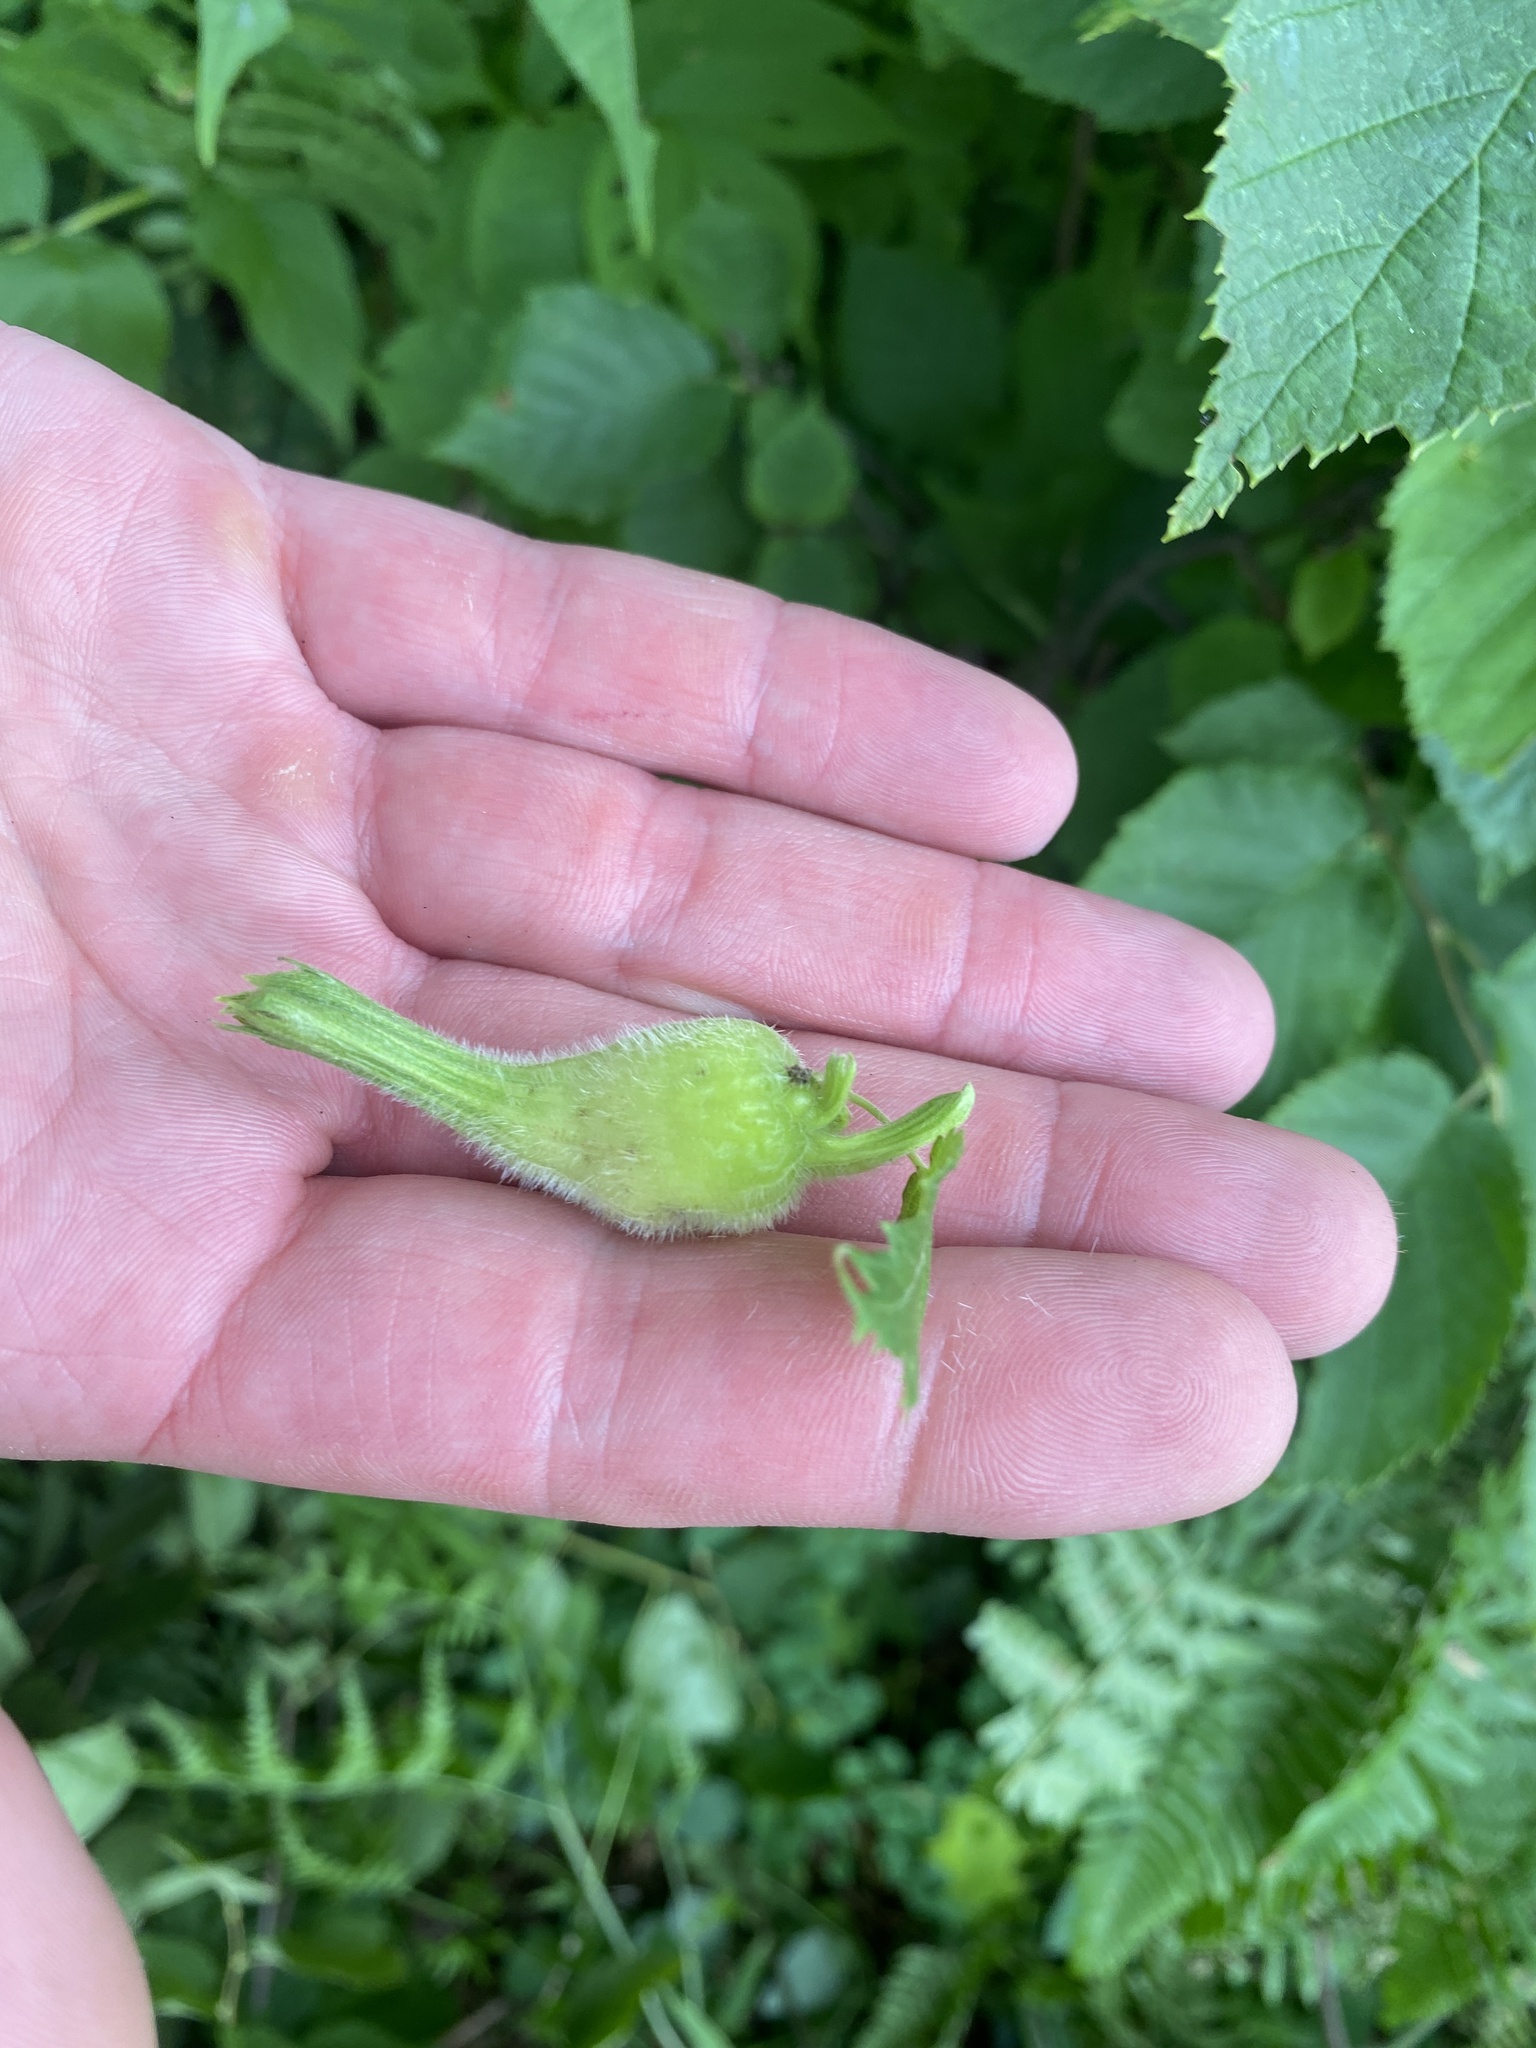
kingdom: Plantae
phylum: Tracheophyta
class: Magnoliopsida
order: Fagales
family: Betulaceae
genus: Corylus
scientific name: Corylus cornuta
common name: Beaked hazel
